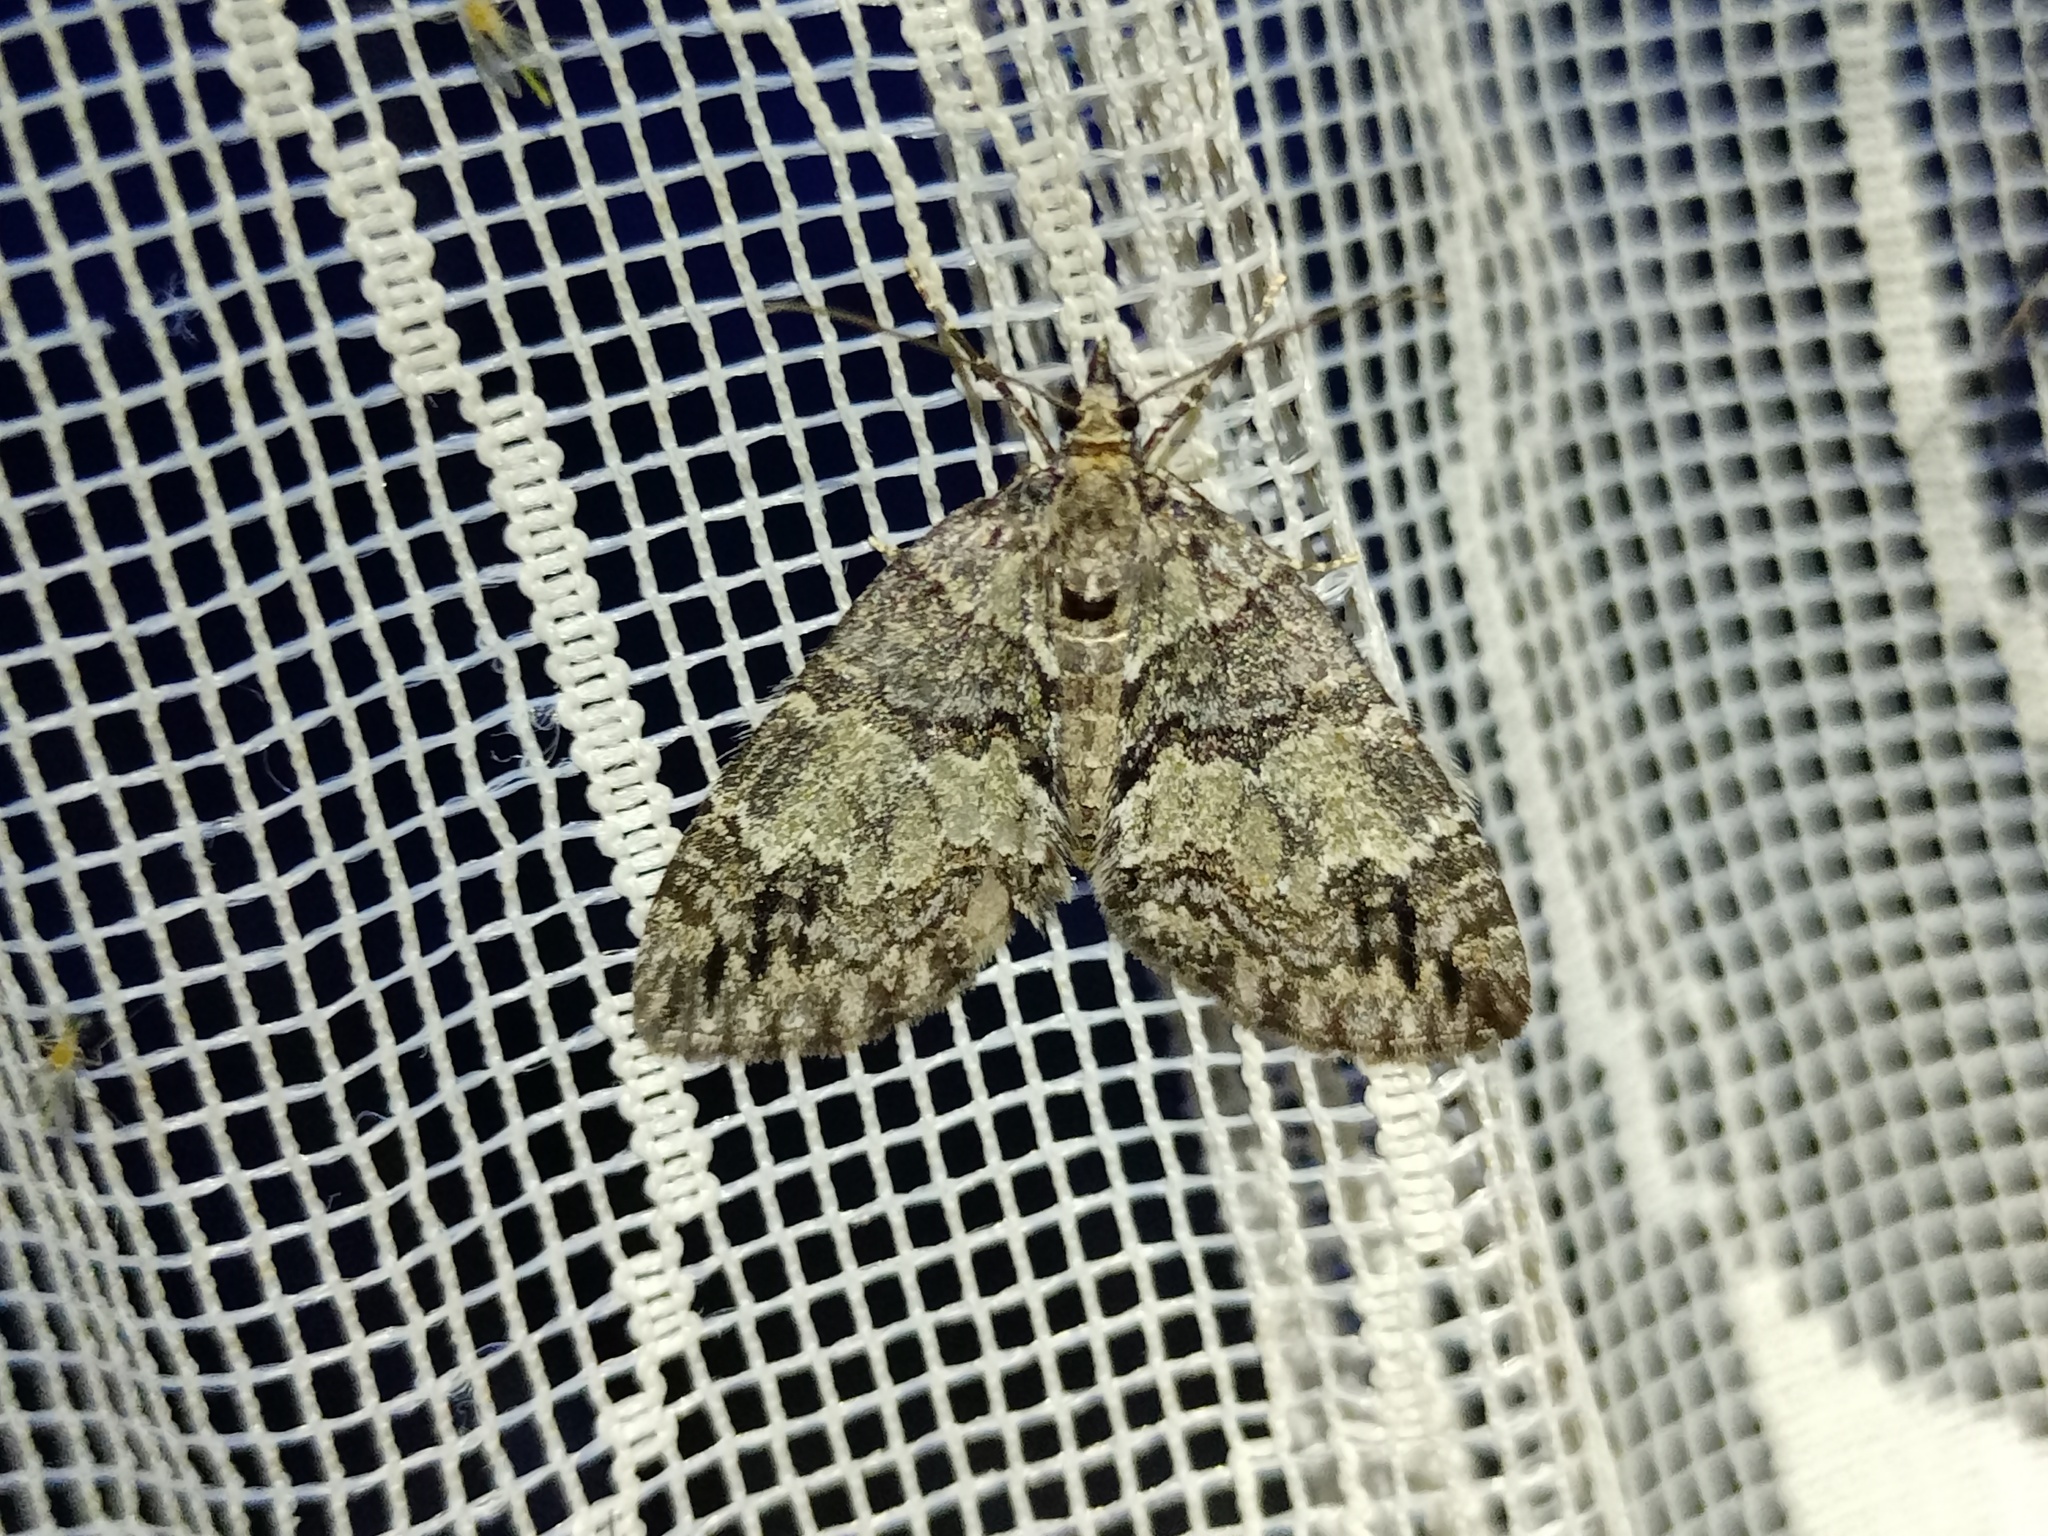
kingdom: Animalia
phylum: Arthropoda
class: Insecta
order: Lepidoptera
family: Geometridae
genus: Hydriomena
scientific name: Hydriomena impluviata
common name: May highflyer
